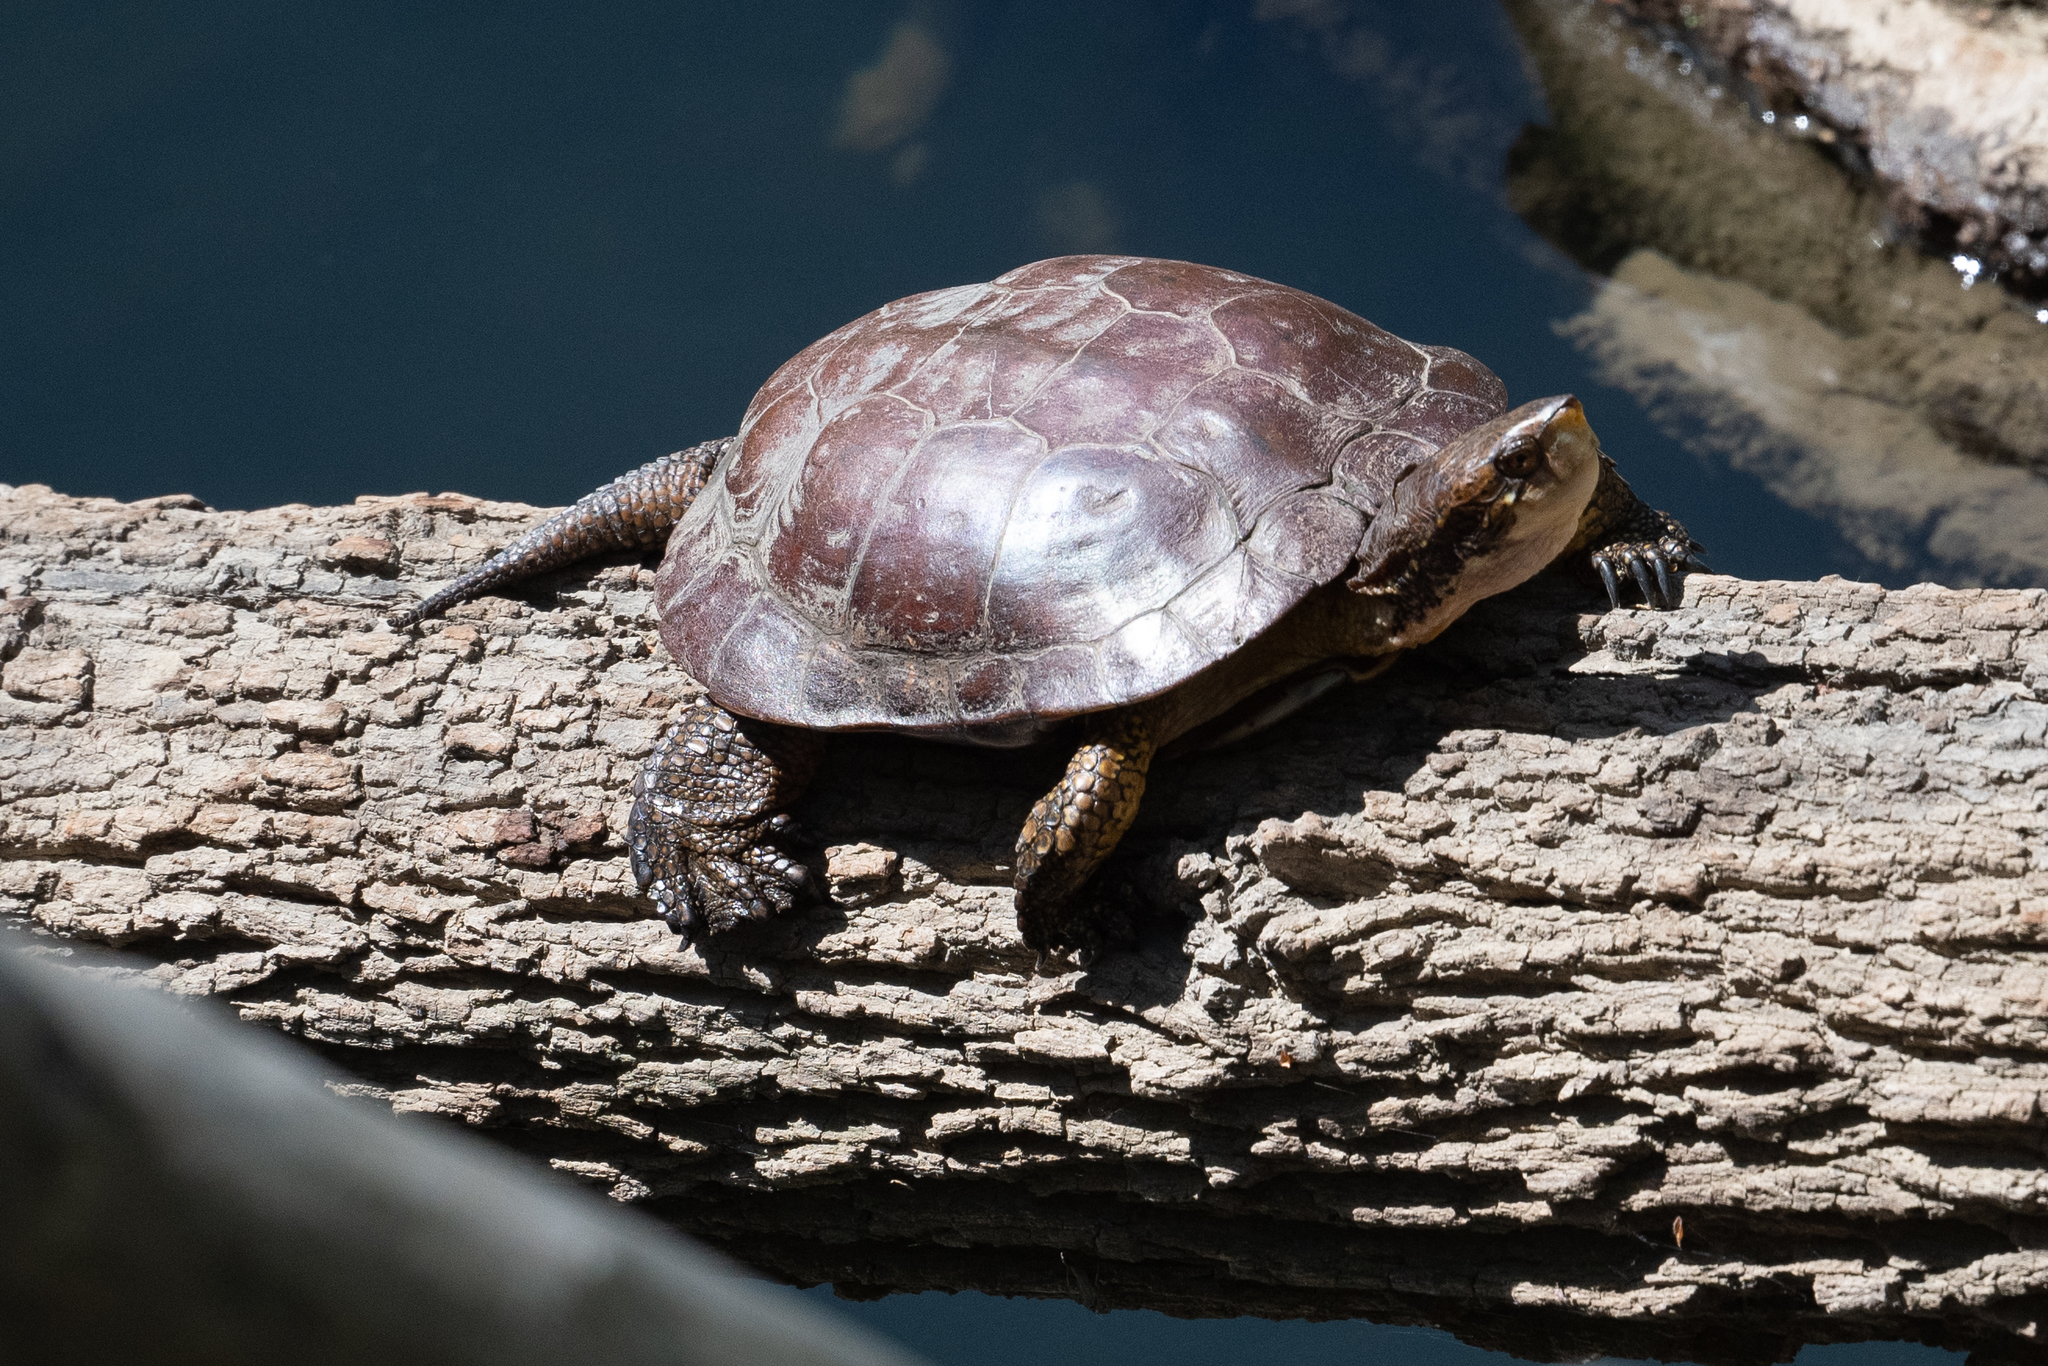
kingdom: Animalia
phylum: Chordata
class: Testudines
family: Emydidae
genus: Actinemys
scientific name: Actinemys marmorata
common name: Western pond turtle
